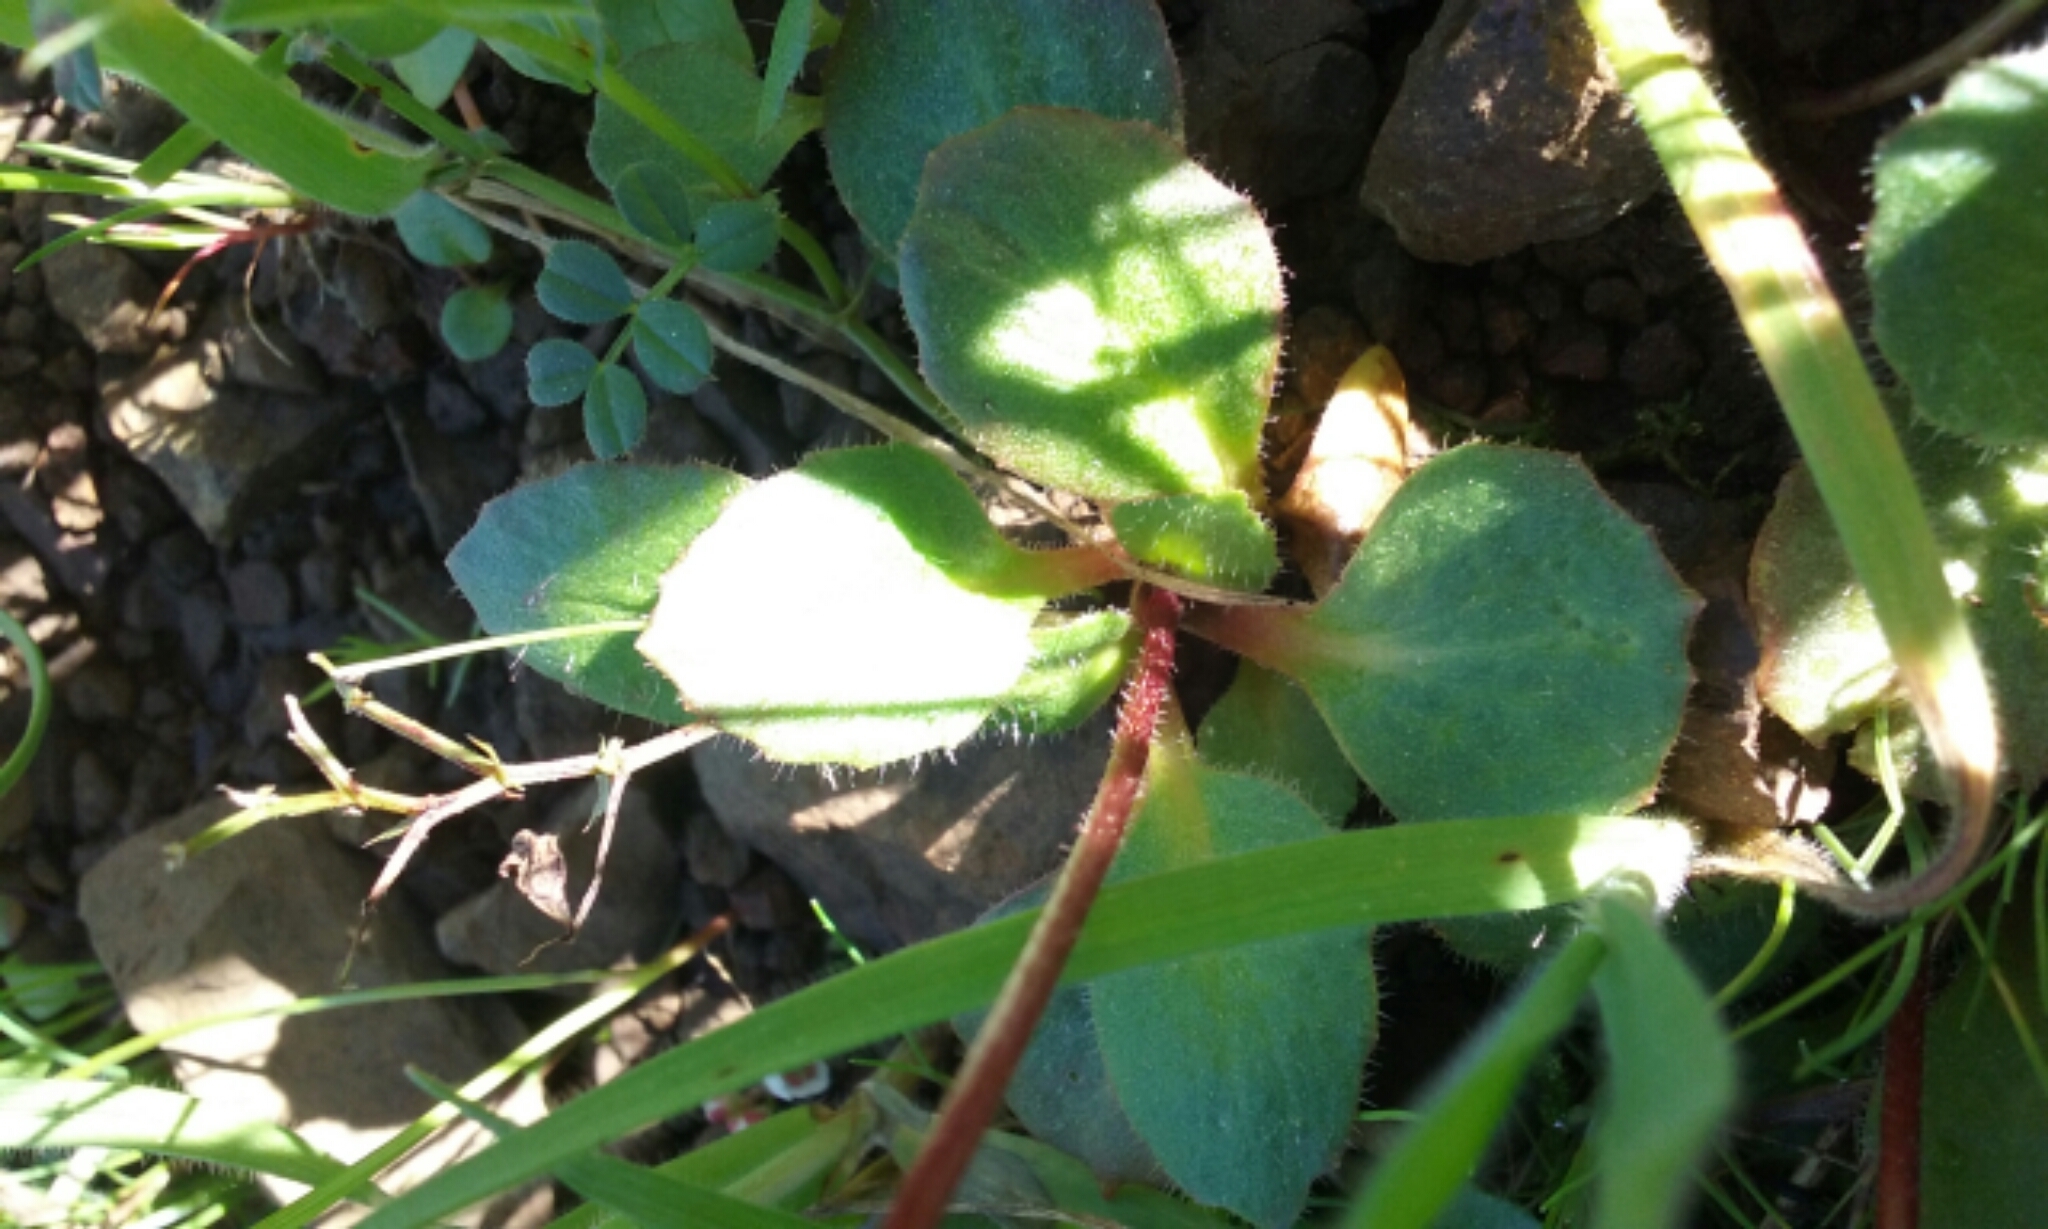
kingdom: Plantae
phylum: Tracheophyta
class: Magnoliopsida
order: Saxifragales
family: Saxifragaceae
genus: Micranthes
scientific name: Micranthes californica
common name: California saxifrage
